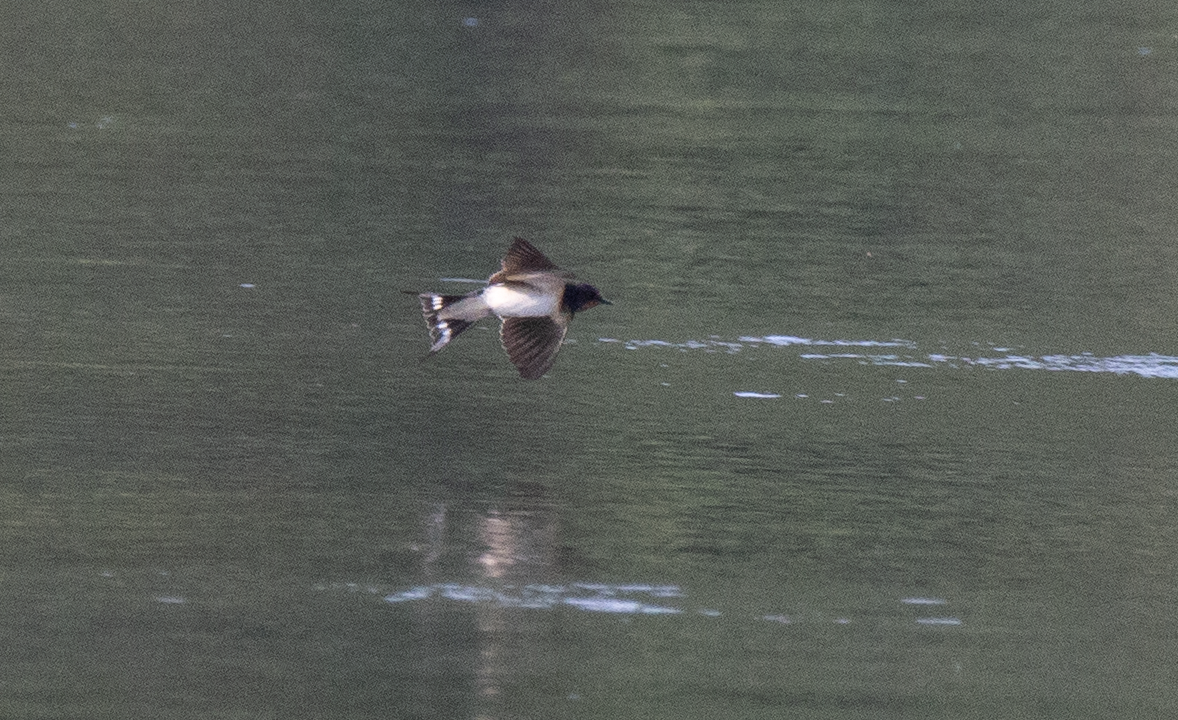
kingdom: Animalia
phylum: Chordata
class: Aves
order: Passeriformes
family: Hirundinidae
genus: Hirundo
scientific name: Hirundo rustica
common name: Barn swallow
